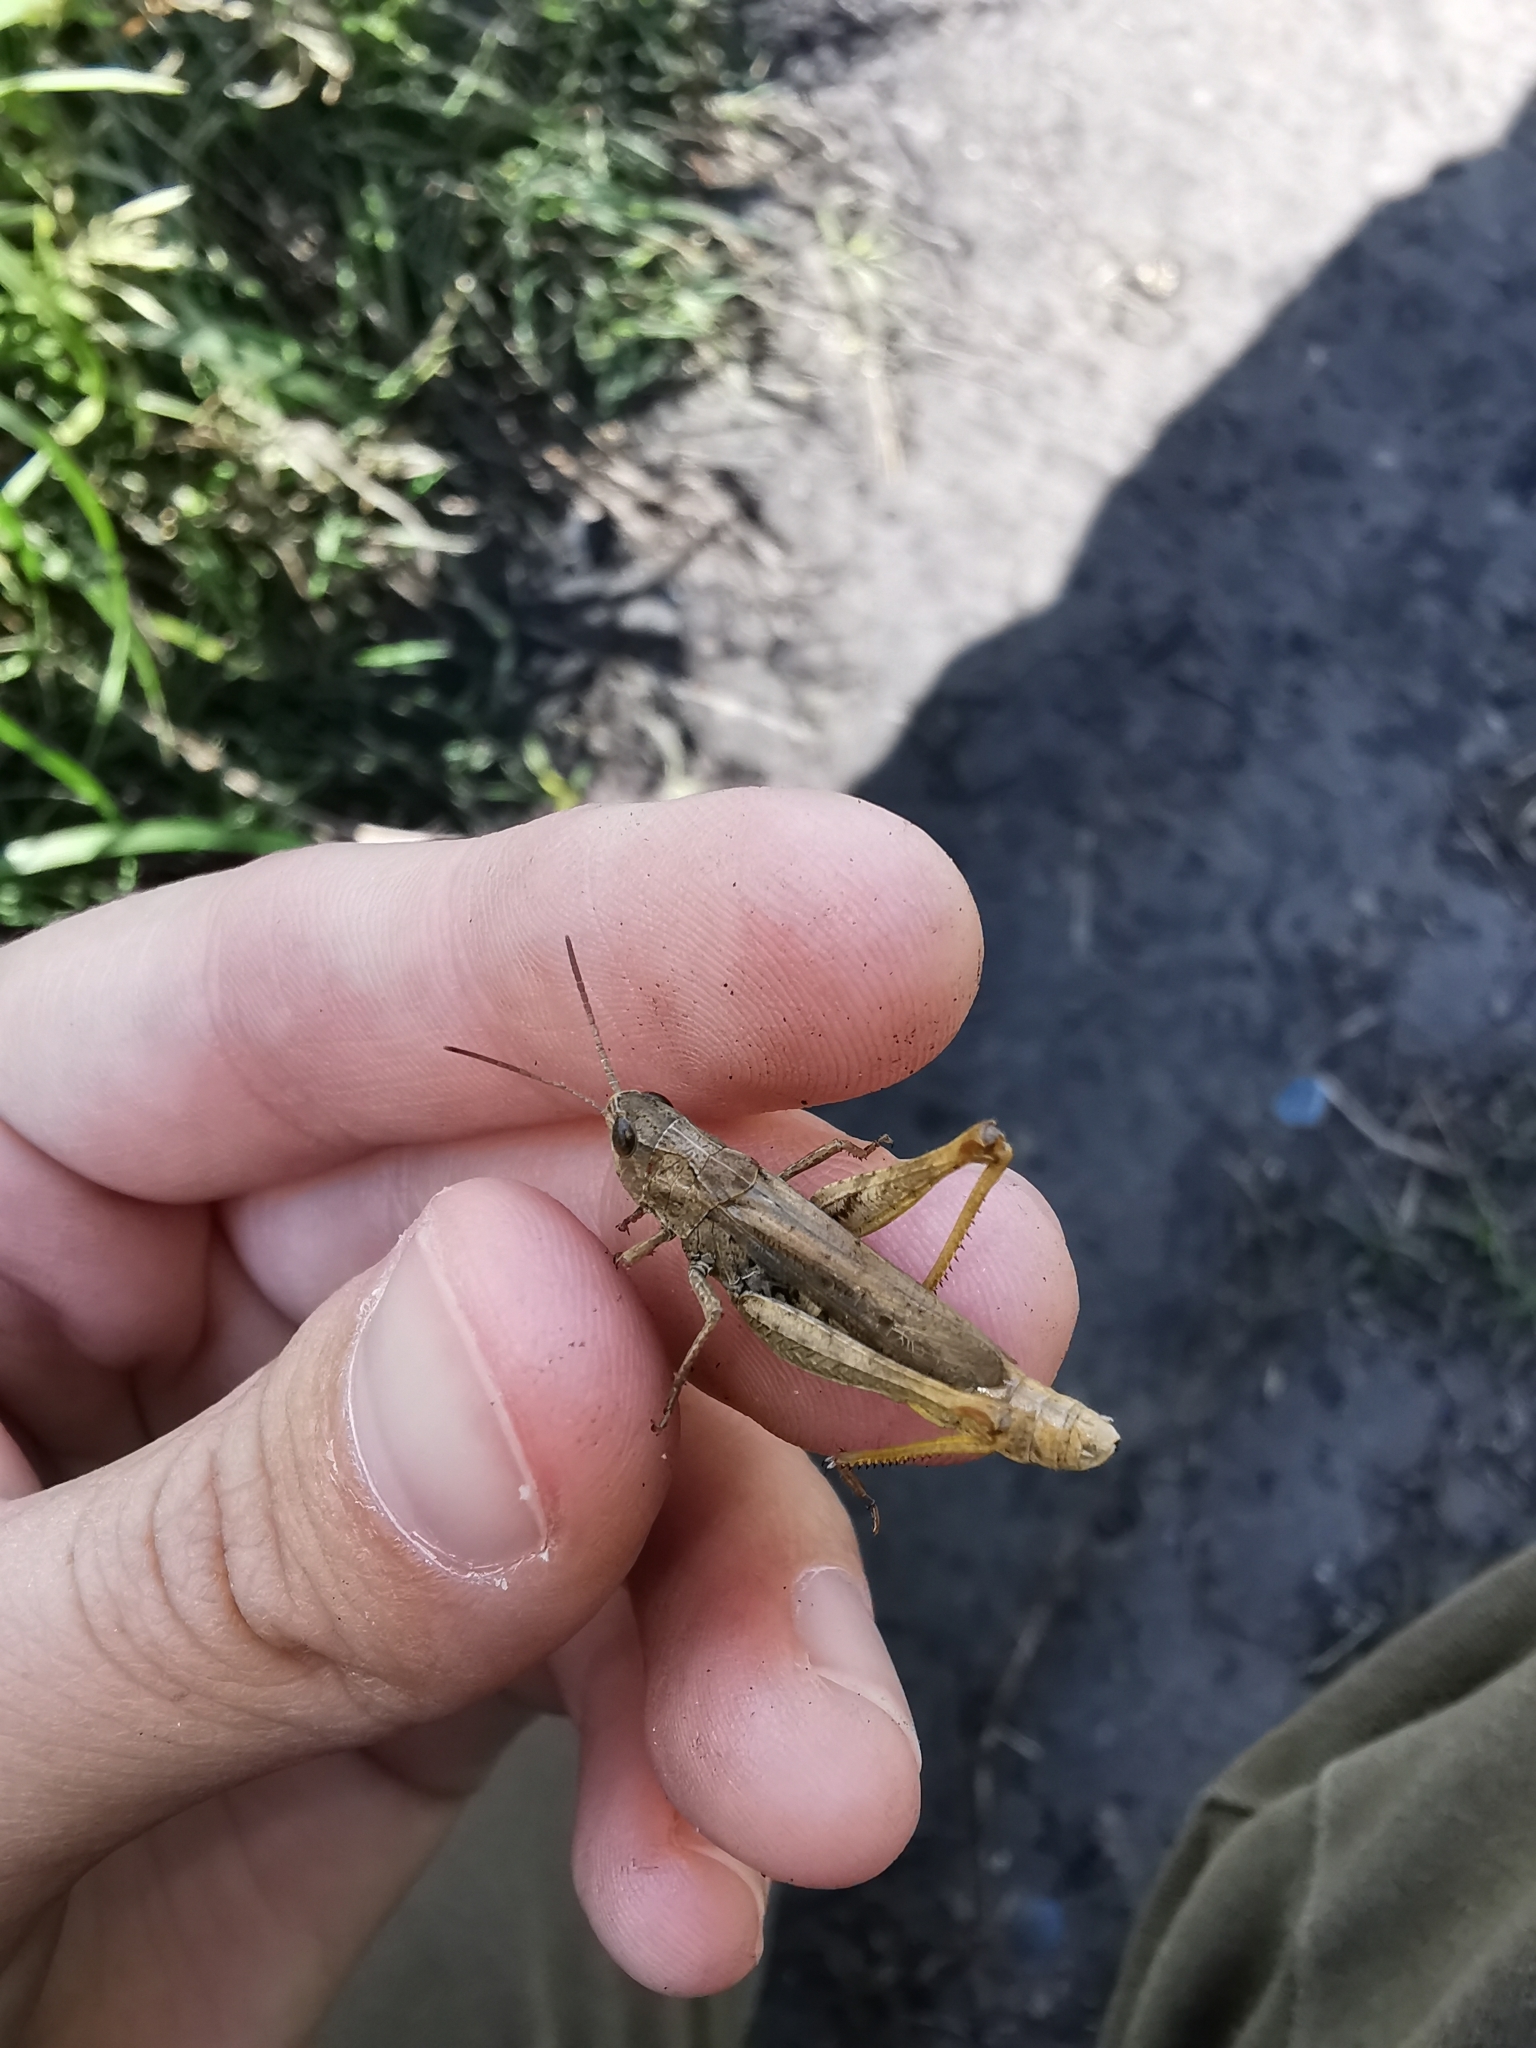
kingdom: Animalia
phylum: Arthropoda
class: Insecta
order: Orthoptera
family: Acrididae
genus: Chorthippus
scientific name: Chorthippus apricarius
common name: Upland field grasshopper
